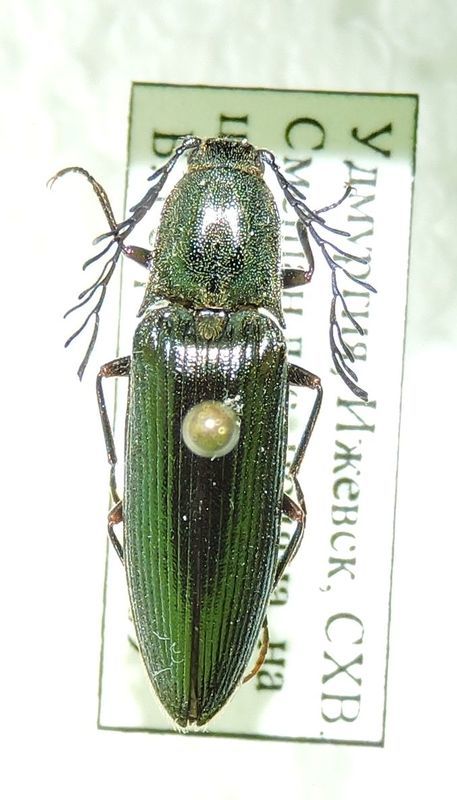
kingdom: Animalia
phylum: Arthropoda
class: Insecta
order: Coleoptera
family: Elateridae
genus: Ctenicera
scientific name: Ctenicera pectinicornis
